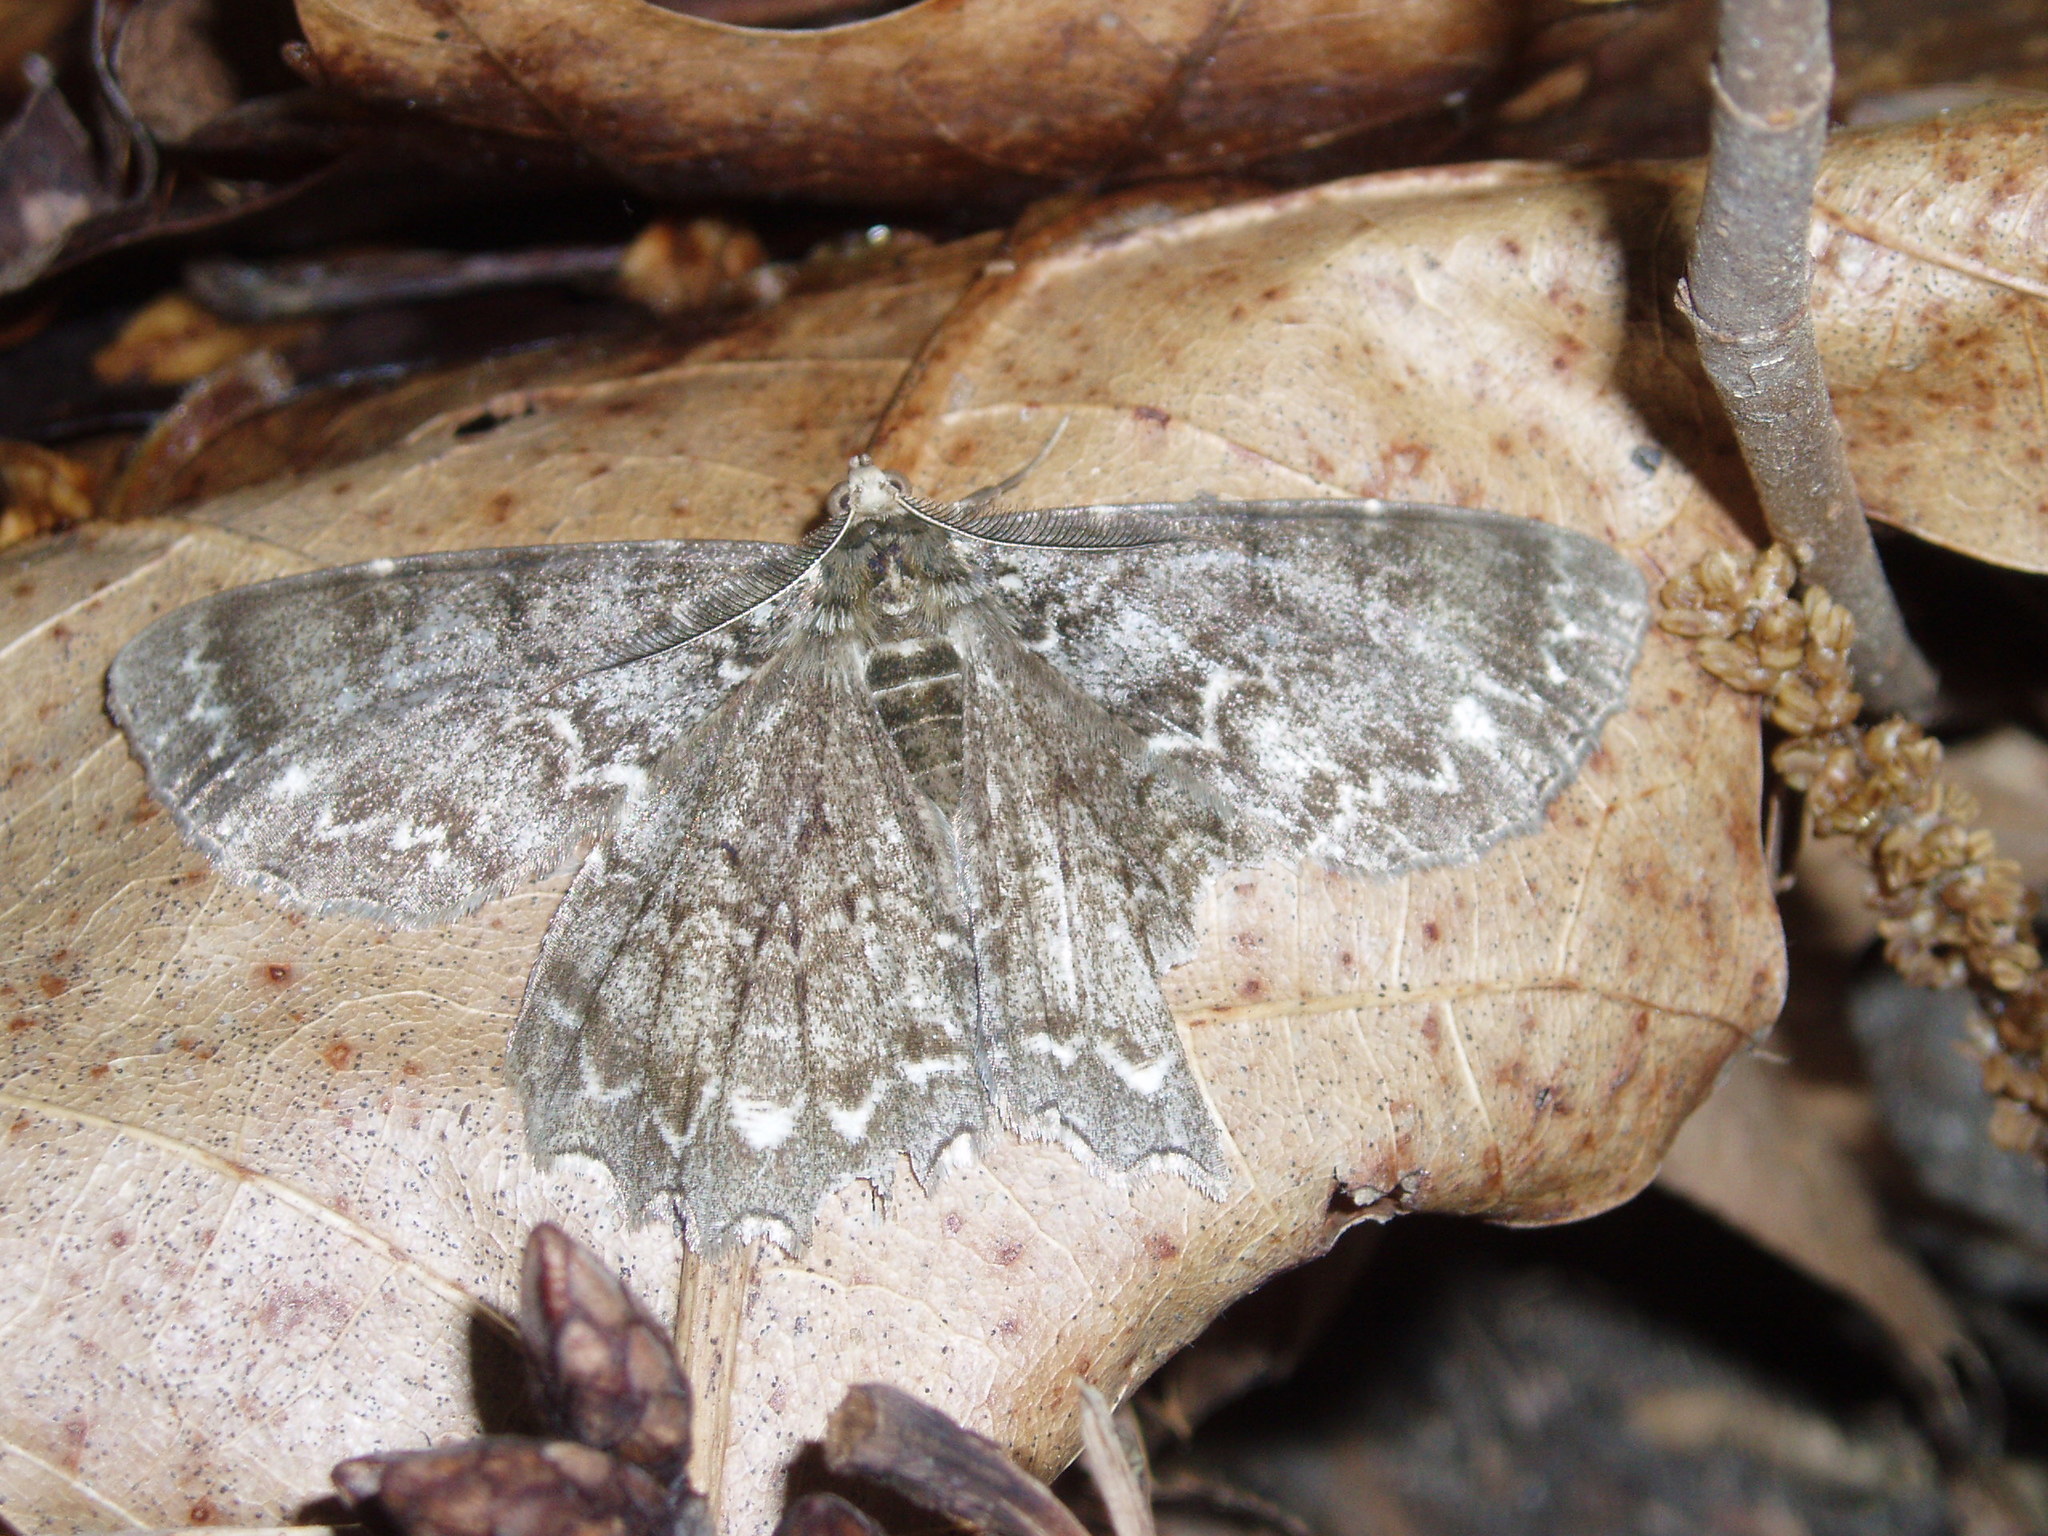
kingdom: Animalia
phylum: Arthropoda
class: Insecta
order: Lepidoptera
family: Geometridae
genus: Epimecis
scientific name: Epimecis hortaria
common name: Tulip-tree beauty
